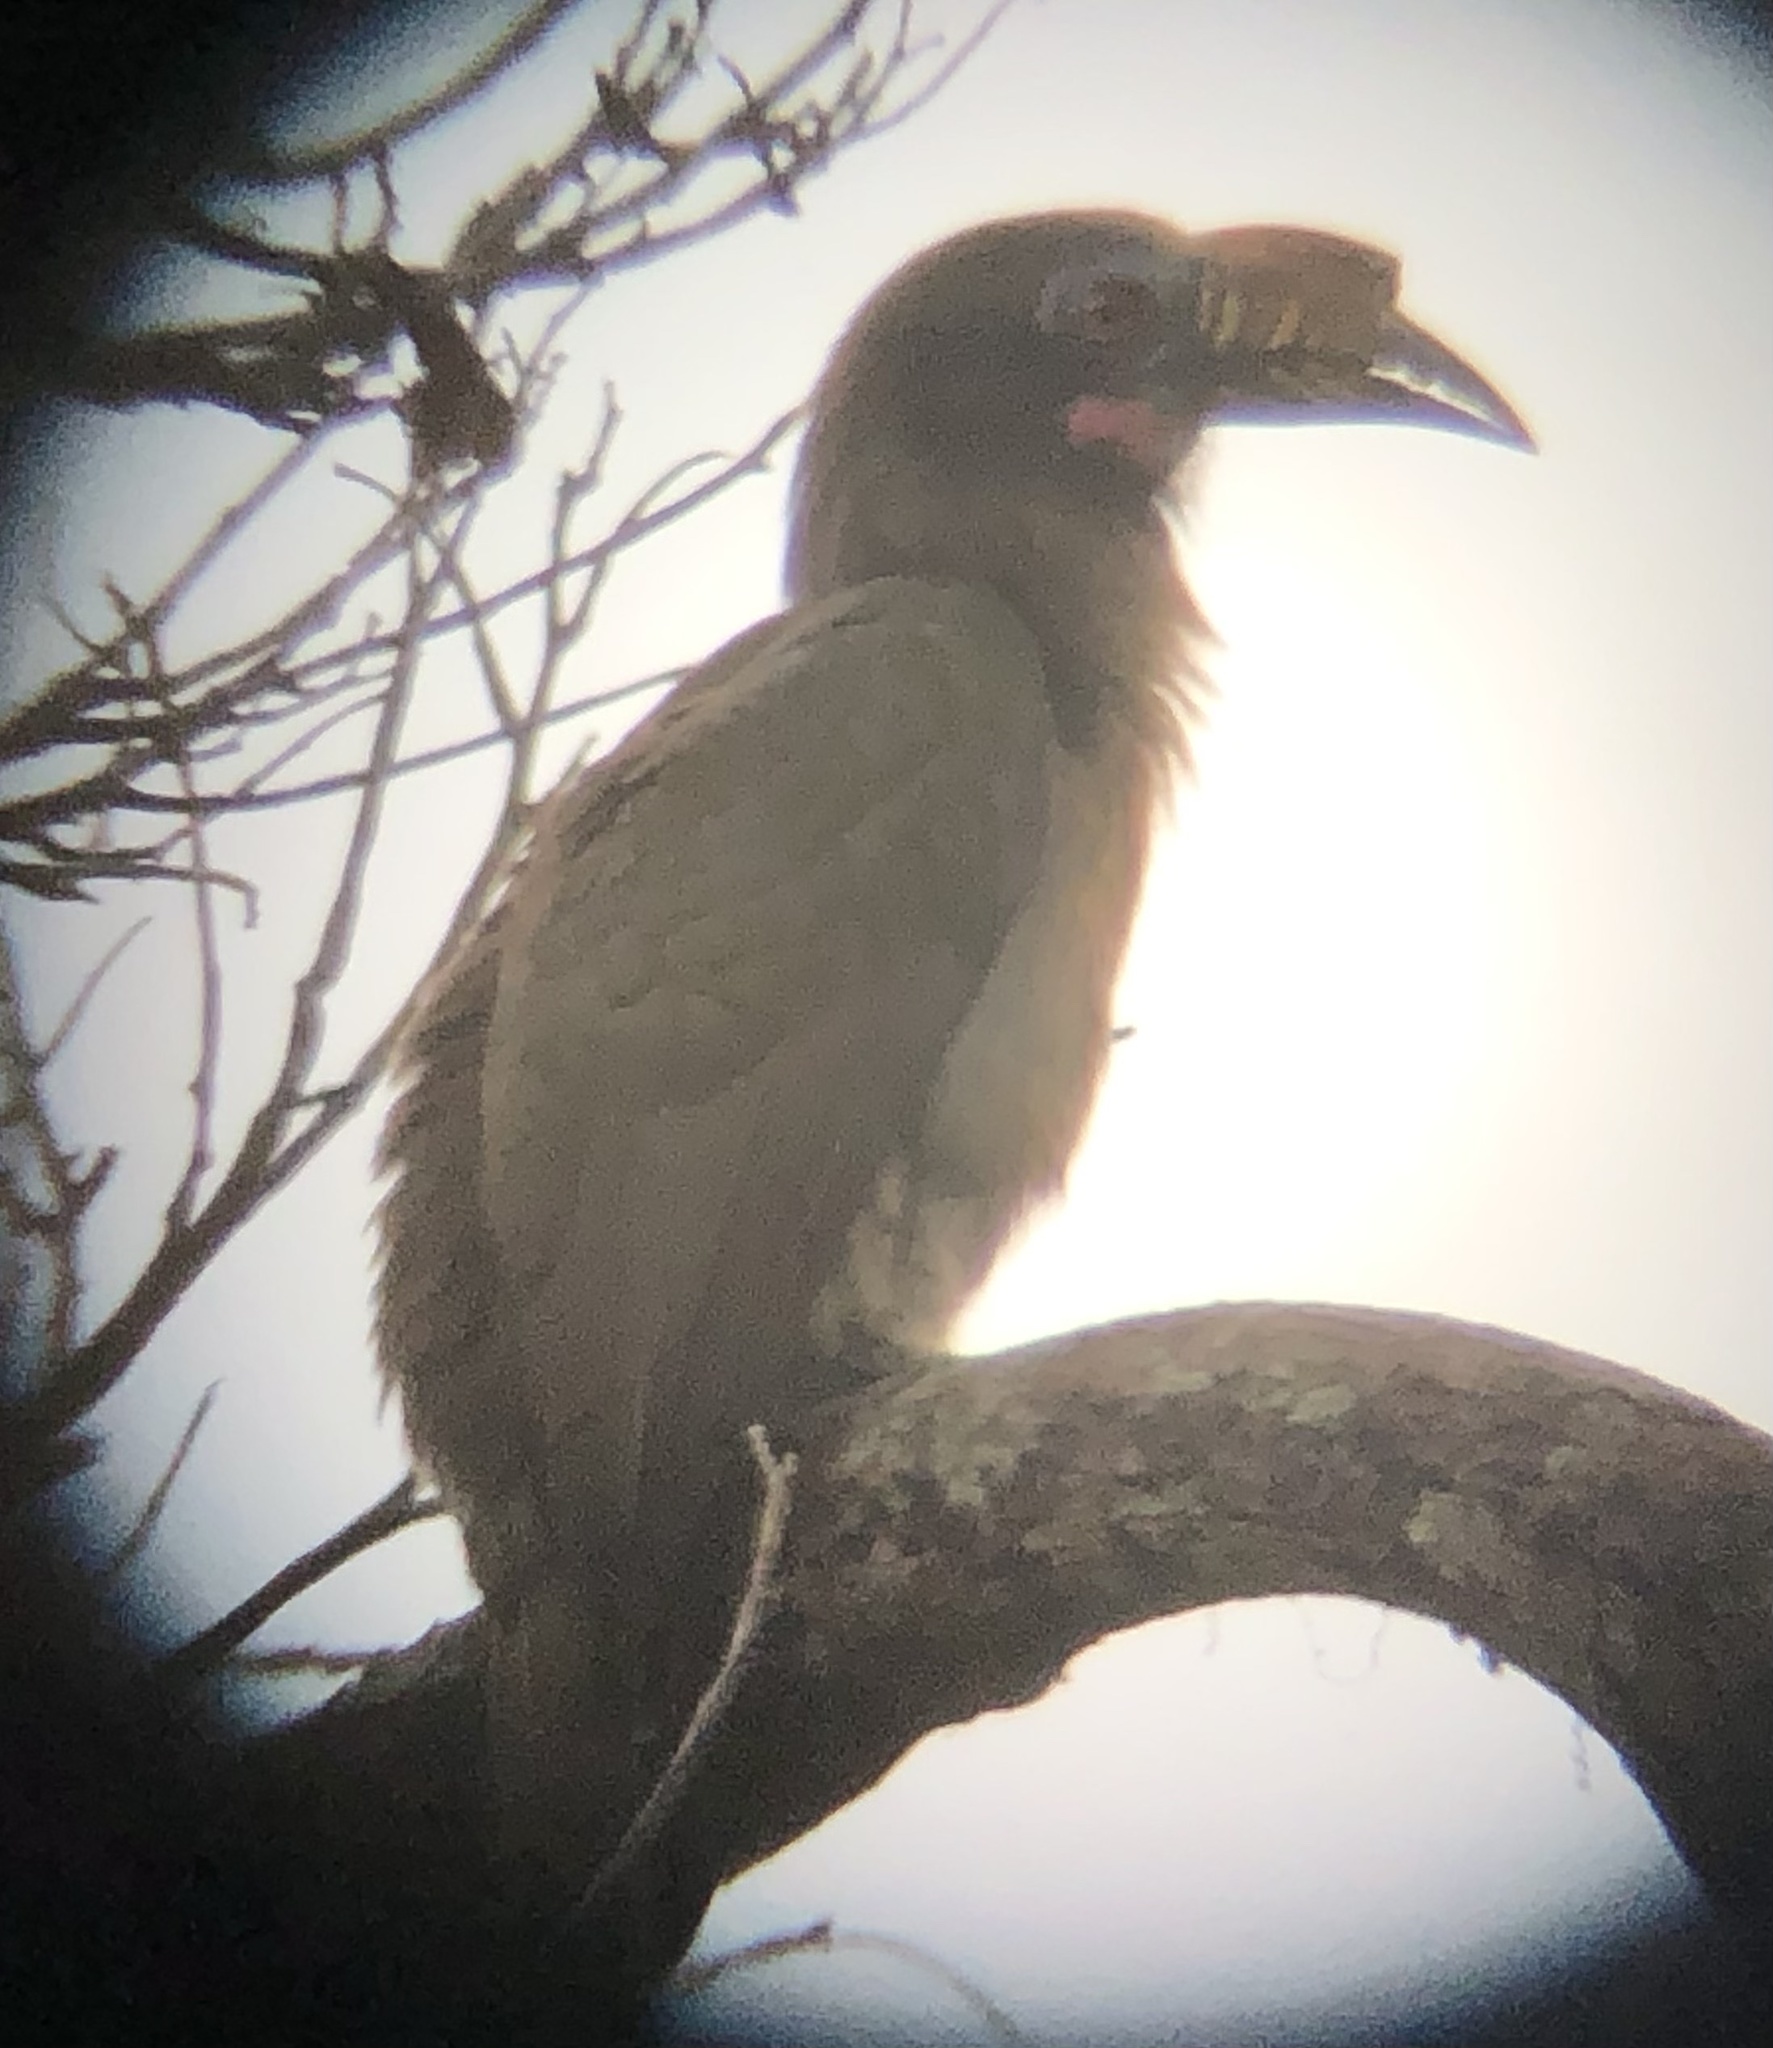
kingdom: Animalia
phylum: Chordata
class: Aves
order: Bucerotiformes
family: Bucerotidae
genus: Penelopides
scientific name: Penelopides manillae
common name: Luzon hornbill
